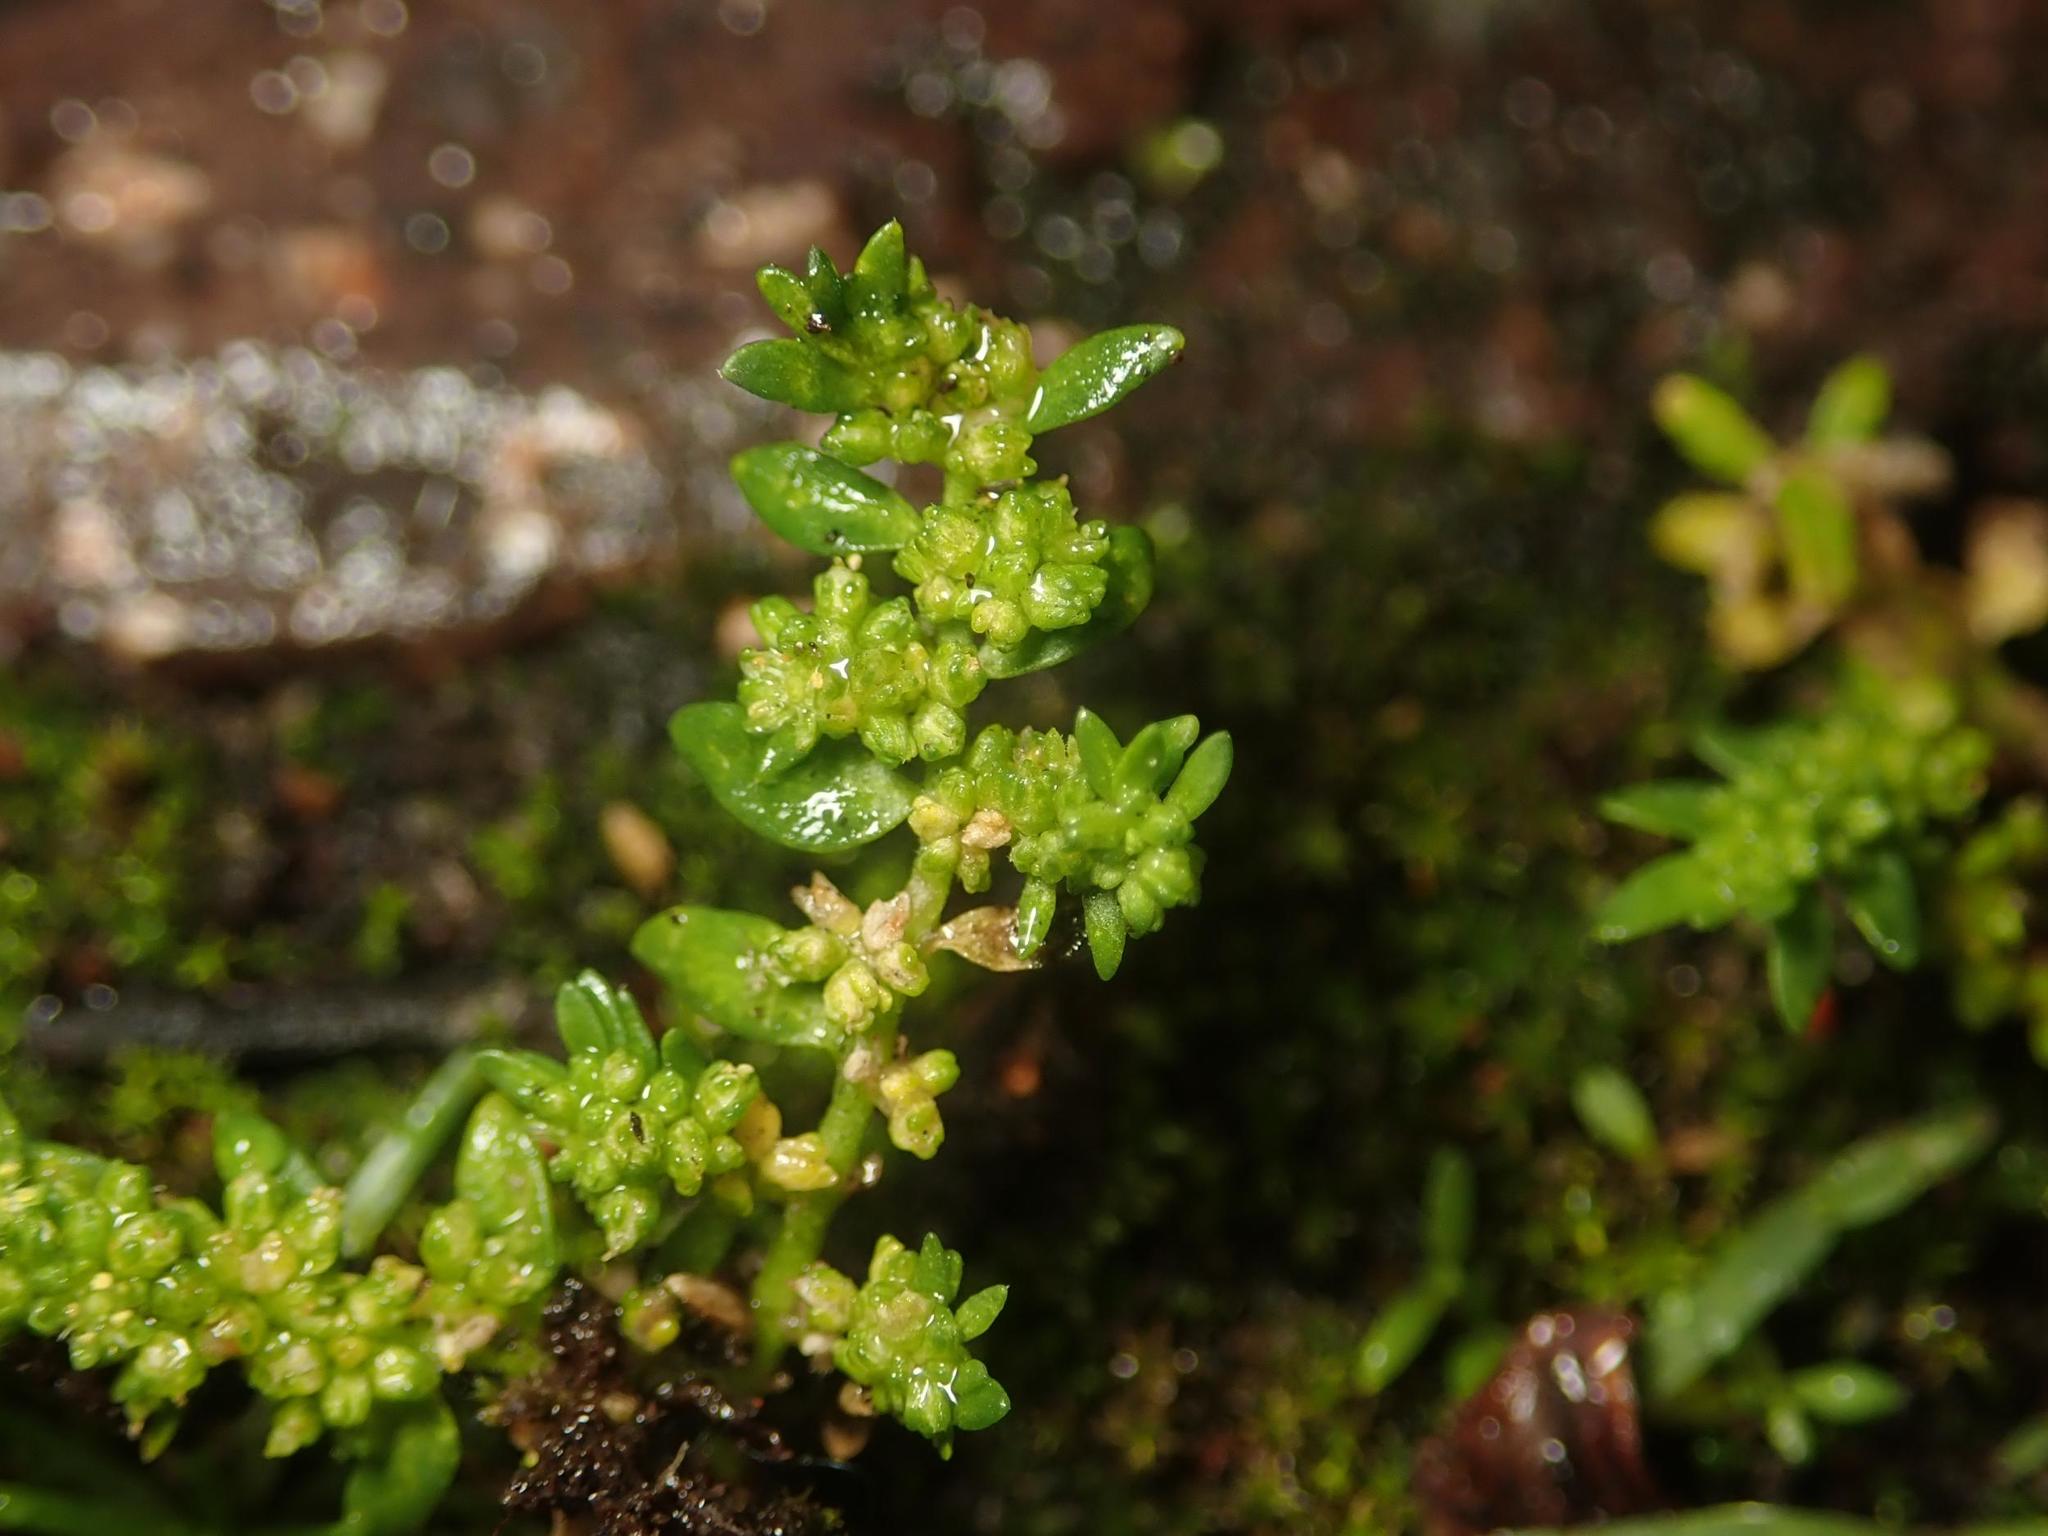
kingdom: Plantae
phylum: Tracheophyta
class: Magnoliopsida
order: Caryophyllales
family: Caryophyllaceae
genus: Herniaria
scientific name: Herniaria glabra
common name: Smooth rupturewort
